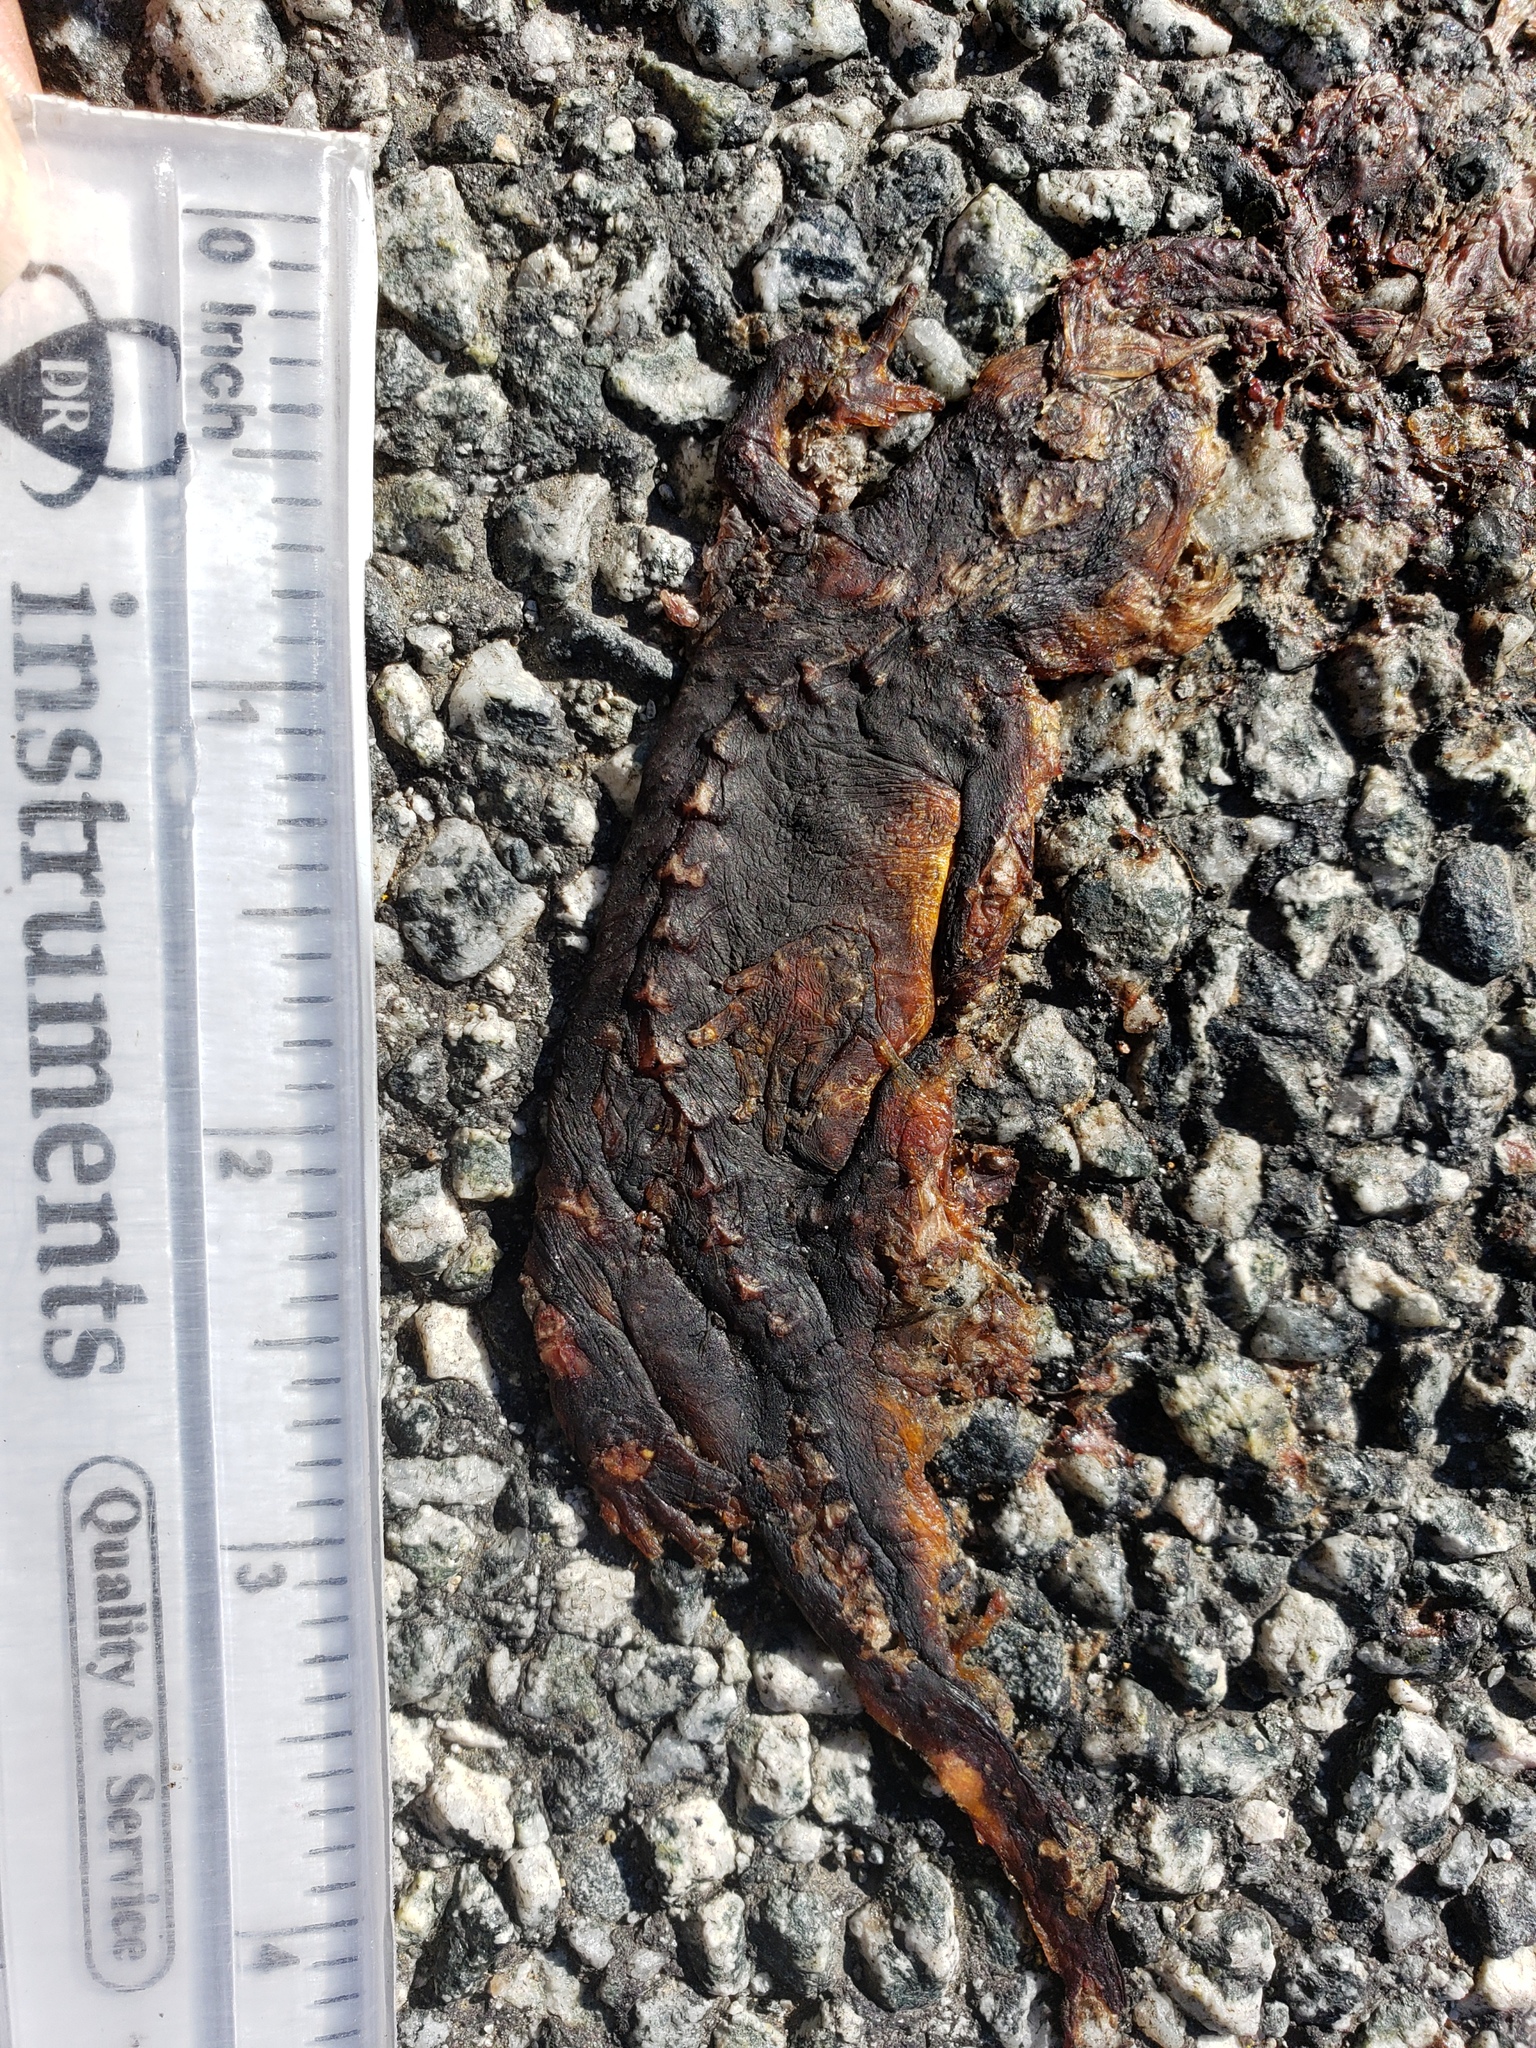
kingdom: Animalia
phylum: Chordata
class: Amphibia
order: Caudata
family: Salamandridae
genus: Taricha
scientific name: Taricha
